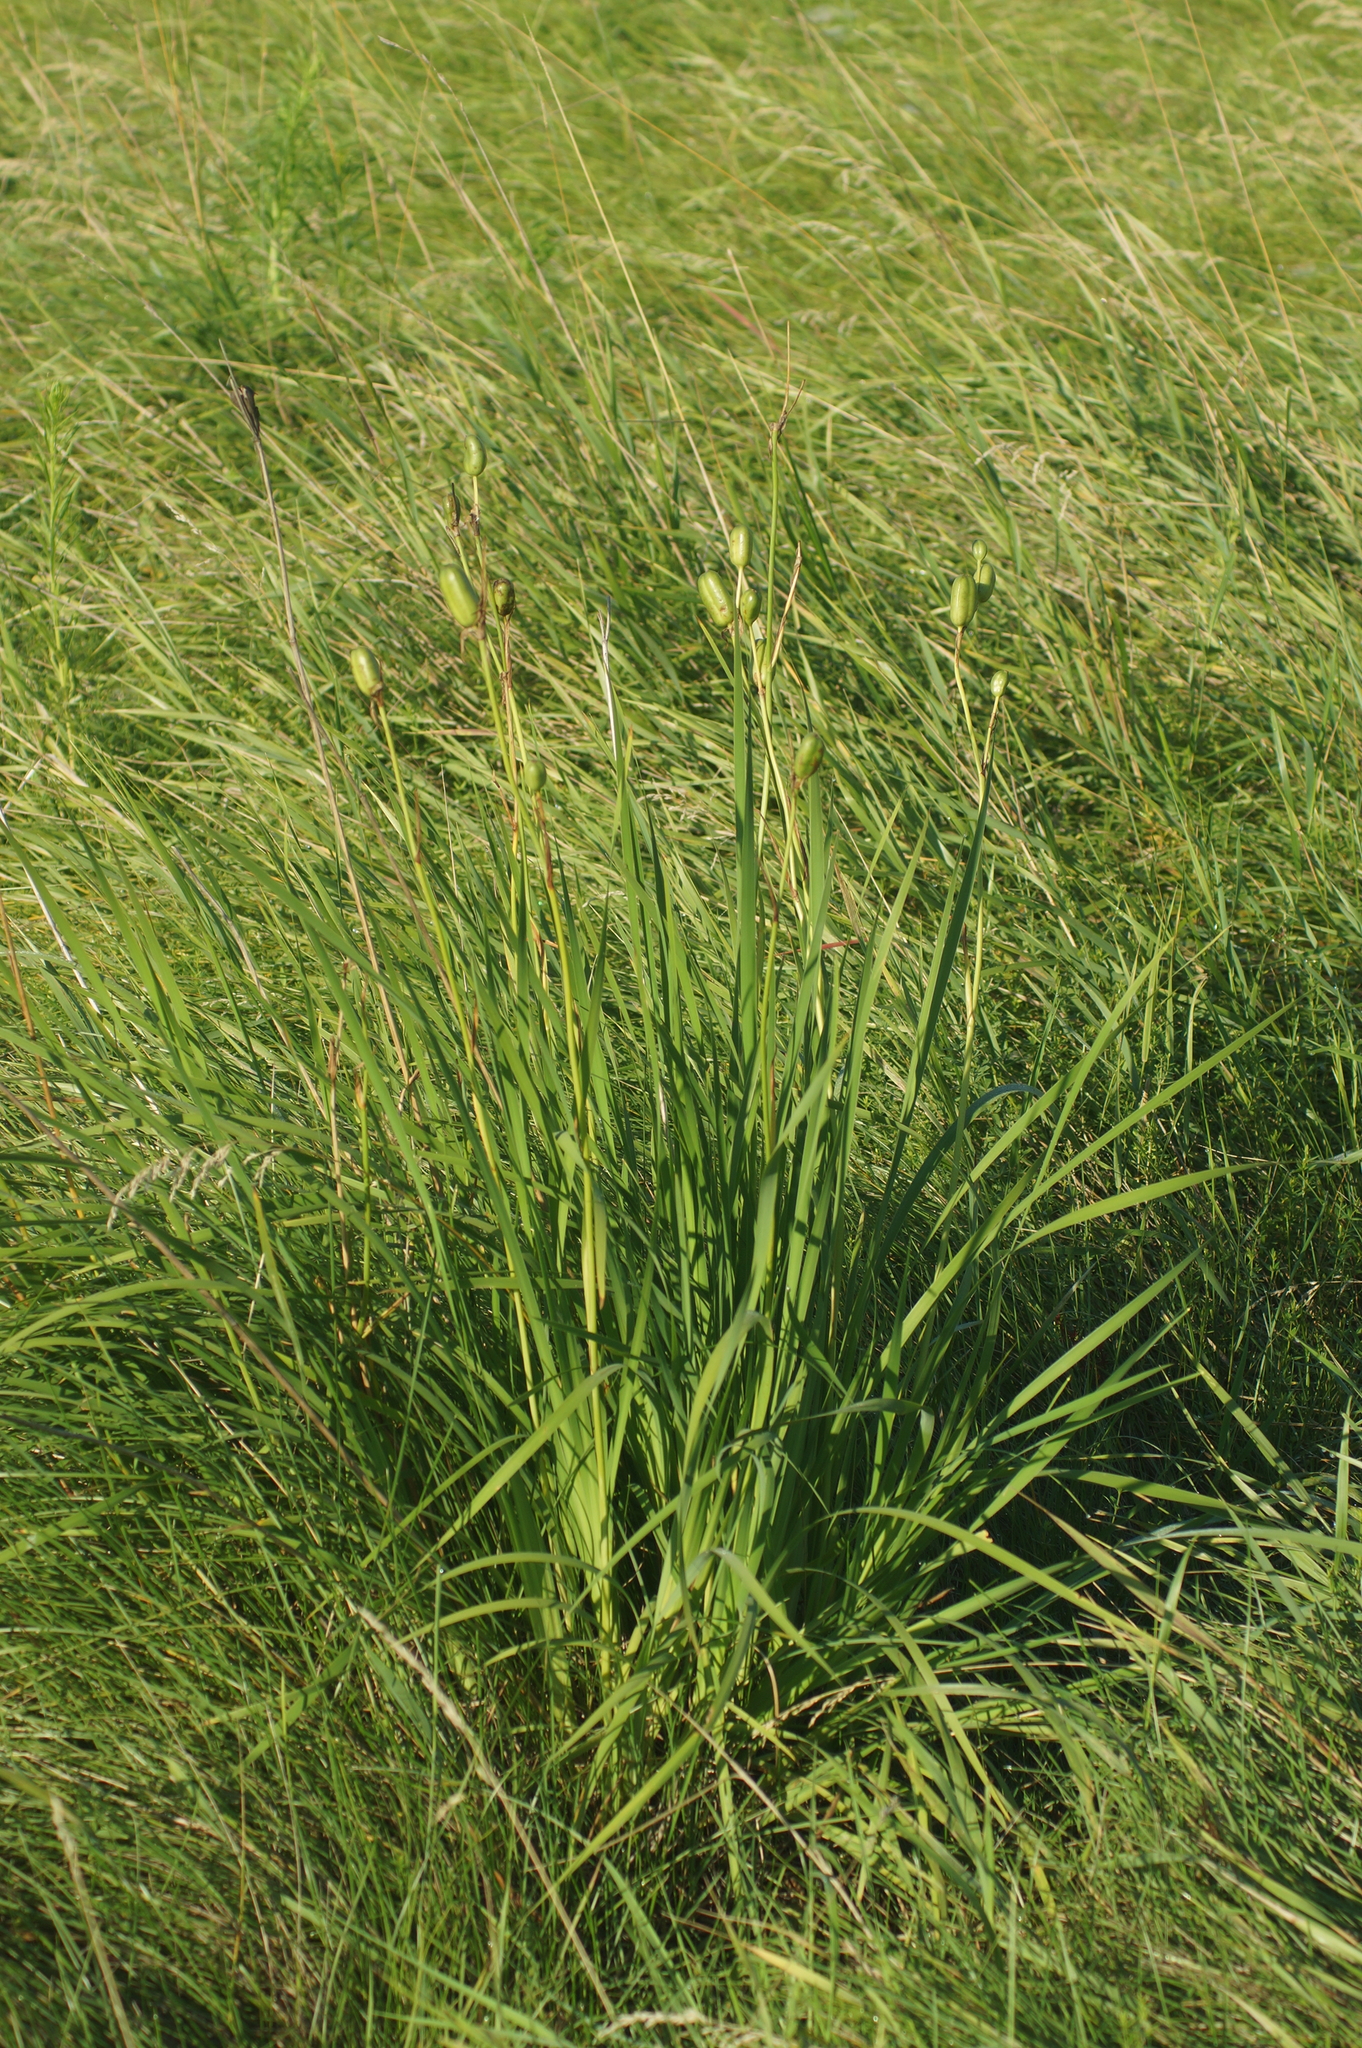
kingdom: Plantae
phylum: Tracheophyta
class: Liliopsida
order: Asparagales
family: Iridaceae
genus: Iris
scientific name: Iris sibirica
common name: Siberian iris
